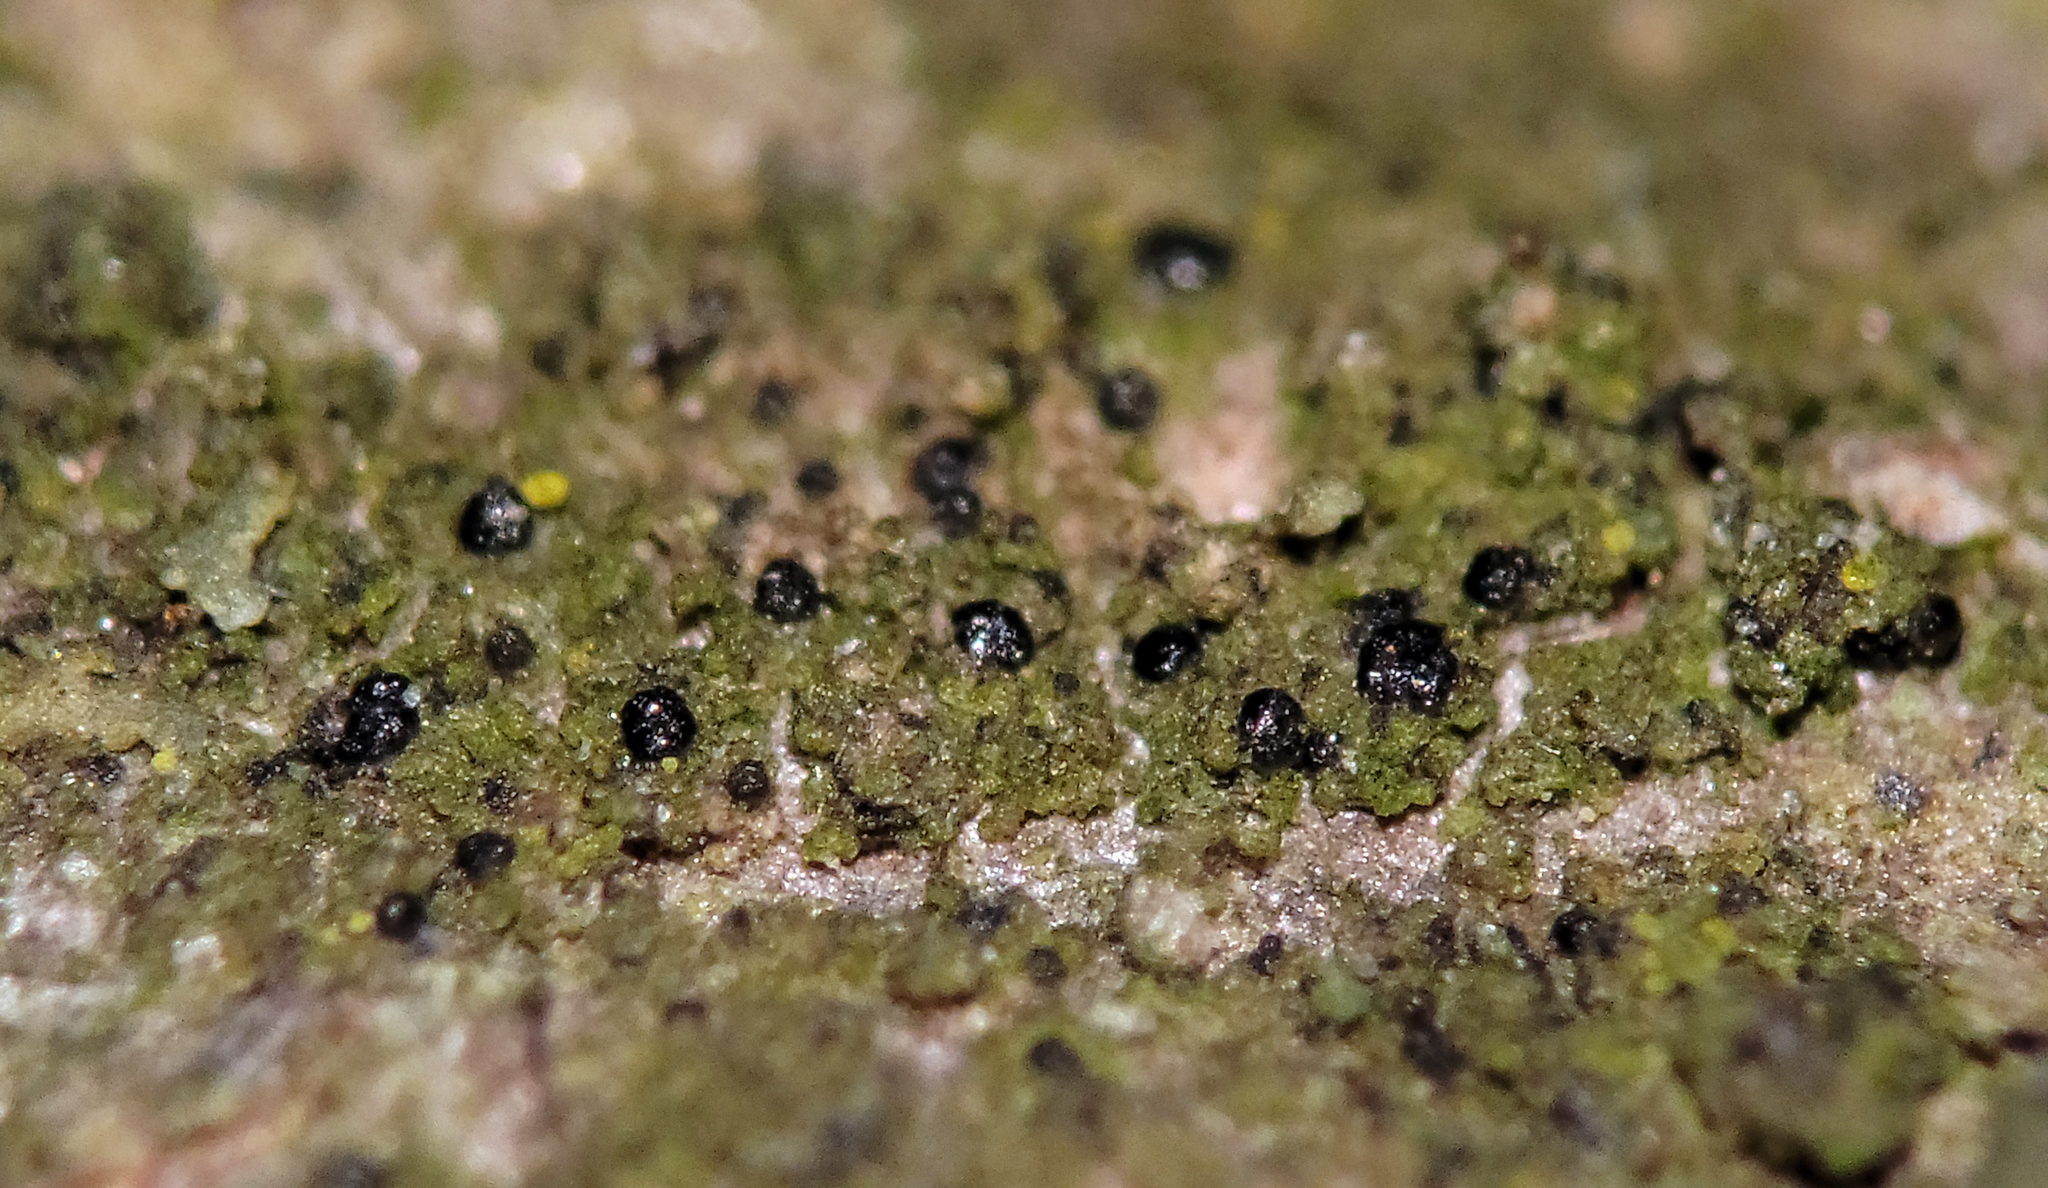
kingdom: Fungi
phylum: Ascomycota
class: Lecanoromycetes
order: Lecanorales
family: Scoliciosporaceae
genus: Scoliciosporum
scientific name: Scoliciosporum umbrinum
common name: Umber dot lichen
